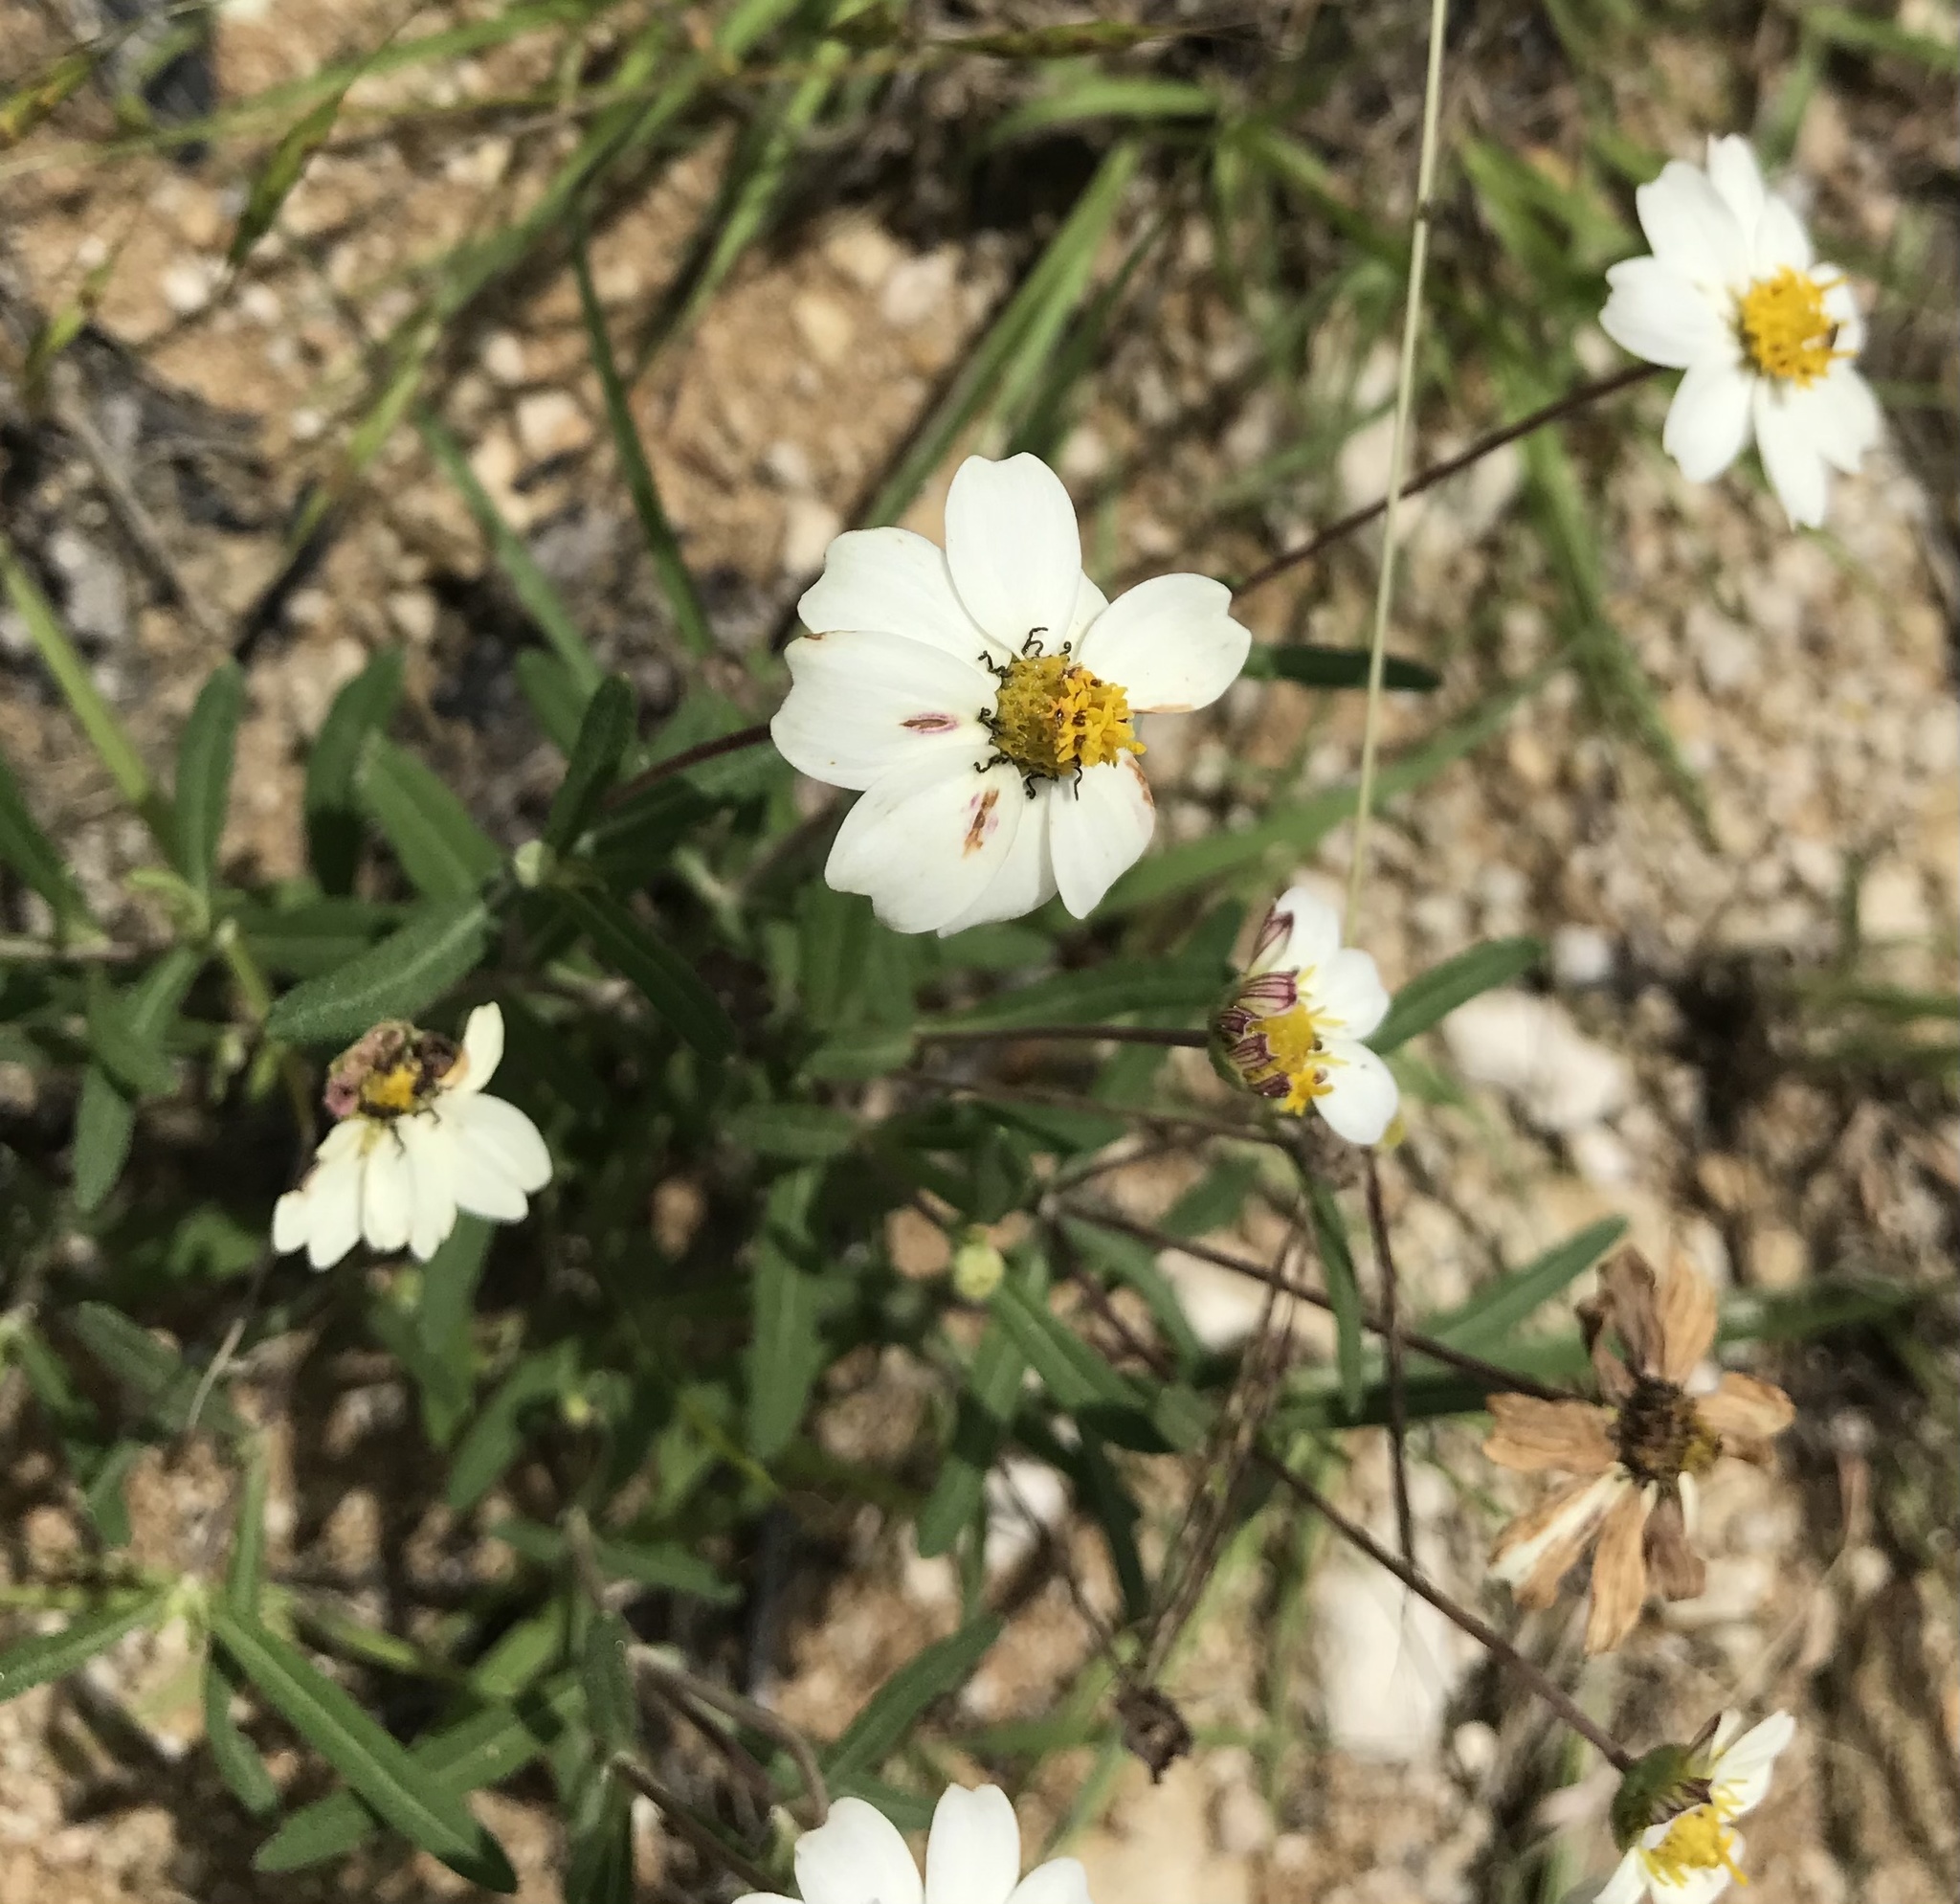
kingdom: Plantae
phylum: Tracheophyta
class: Magnoliopsida
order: Asterales
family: Asteraceae
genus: Melampodium
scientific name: Melampodium leucanthum
